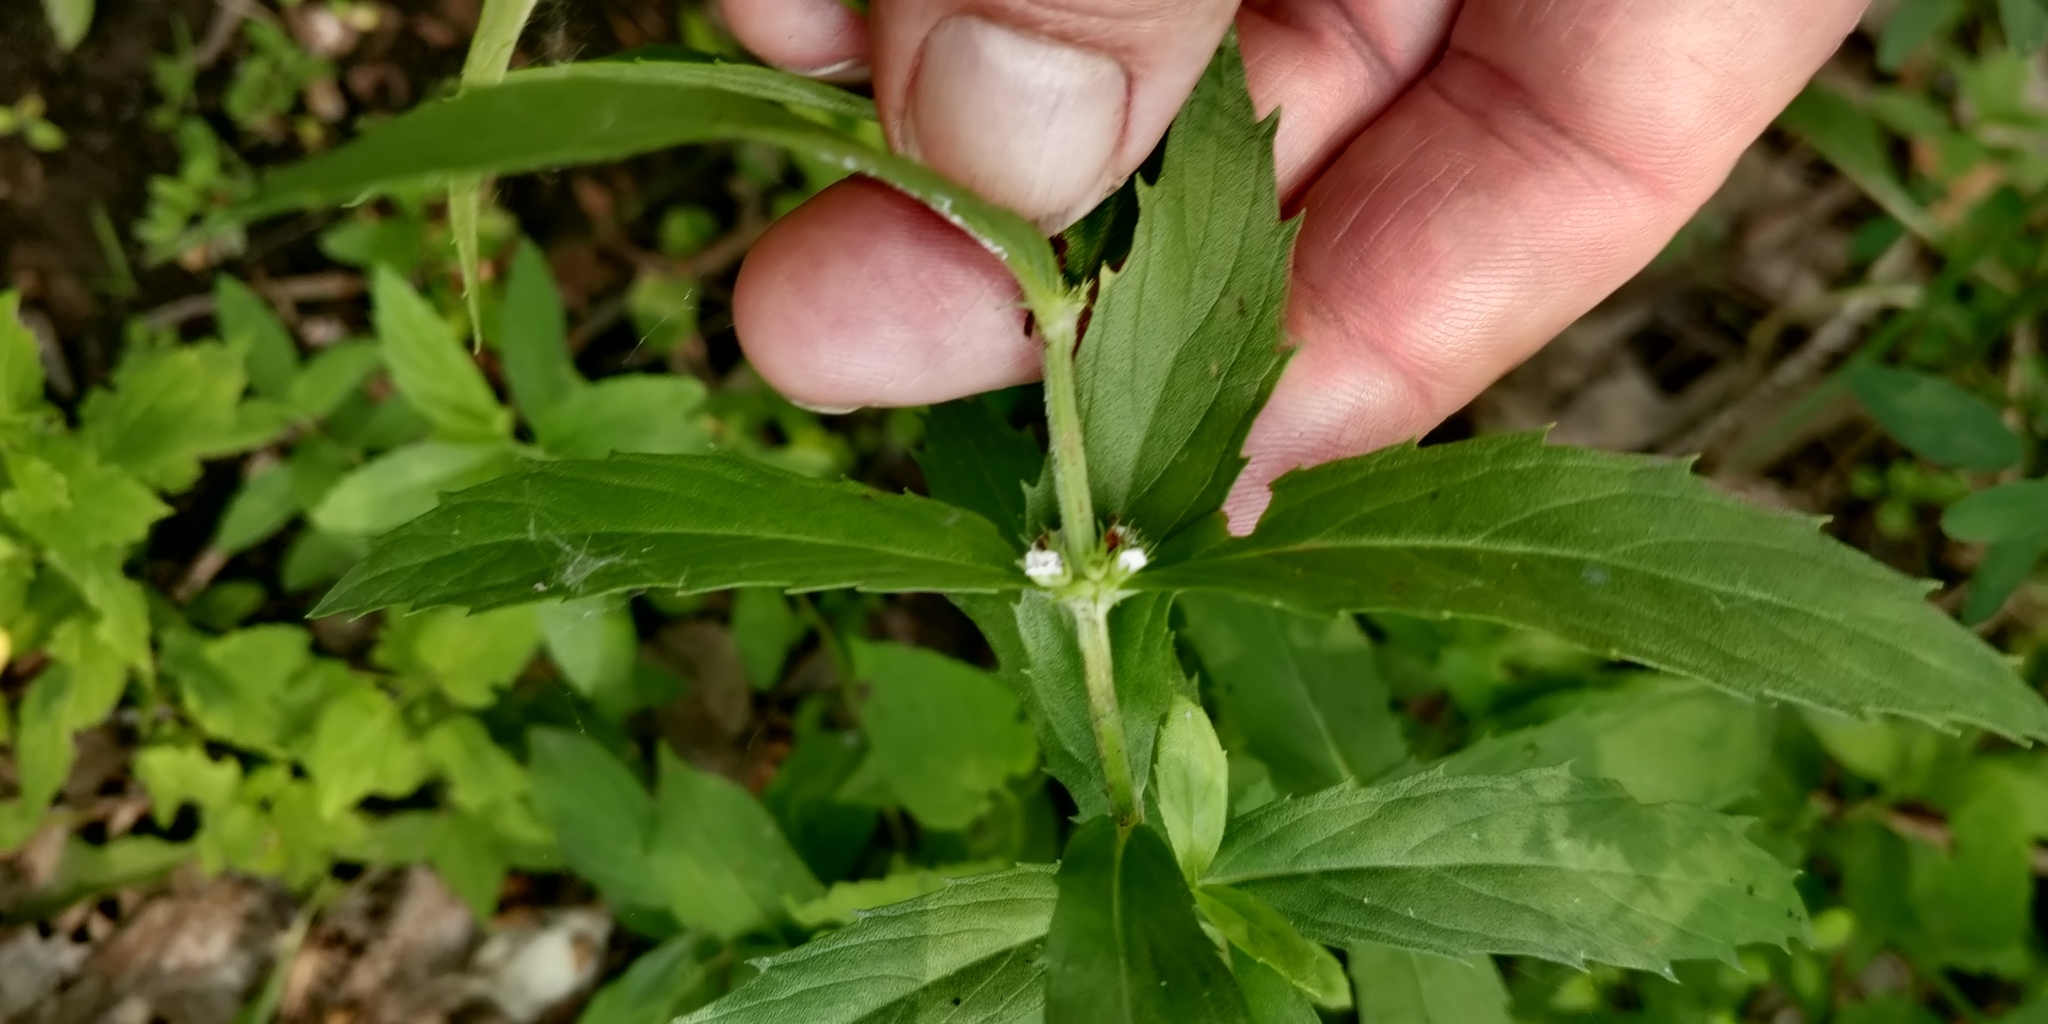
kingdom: Plantae
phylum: Tracheophyta
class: Magnoliopsida
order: Lamiales
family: Lamiaceae
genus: Lycopus
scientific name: Lycopus asper
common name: Rough water-horehound
